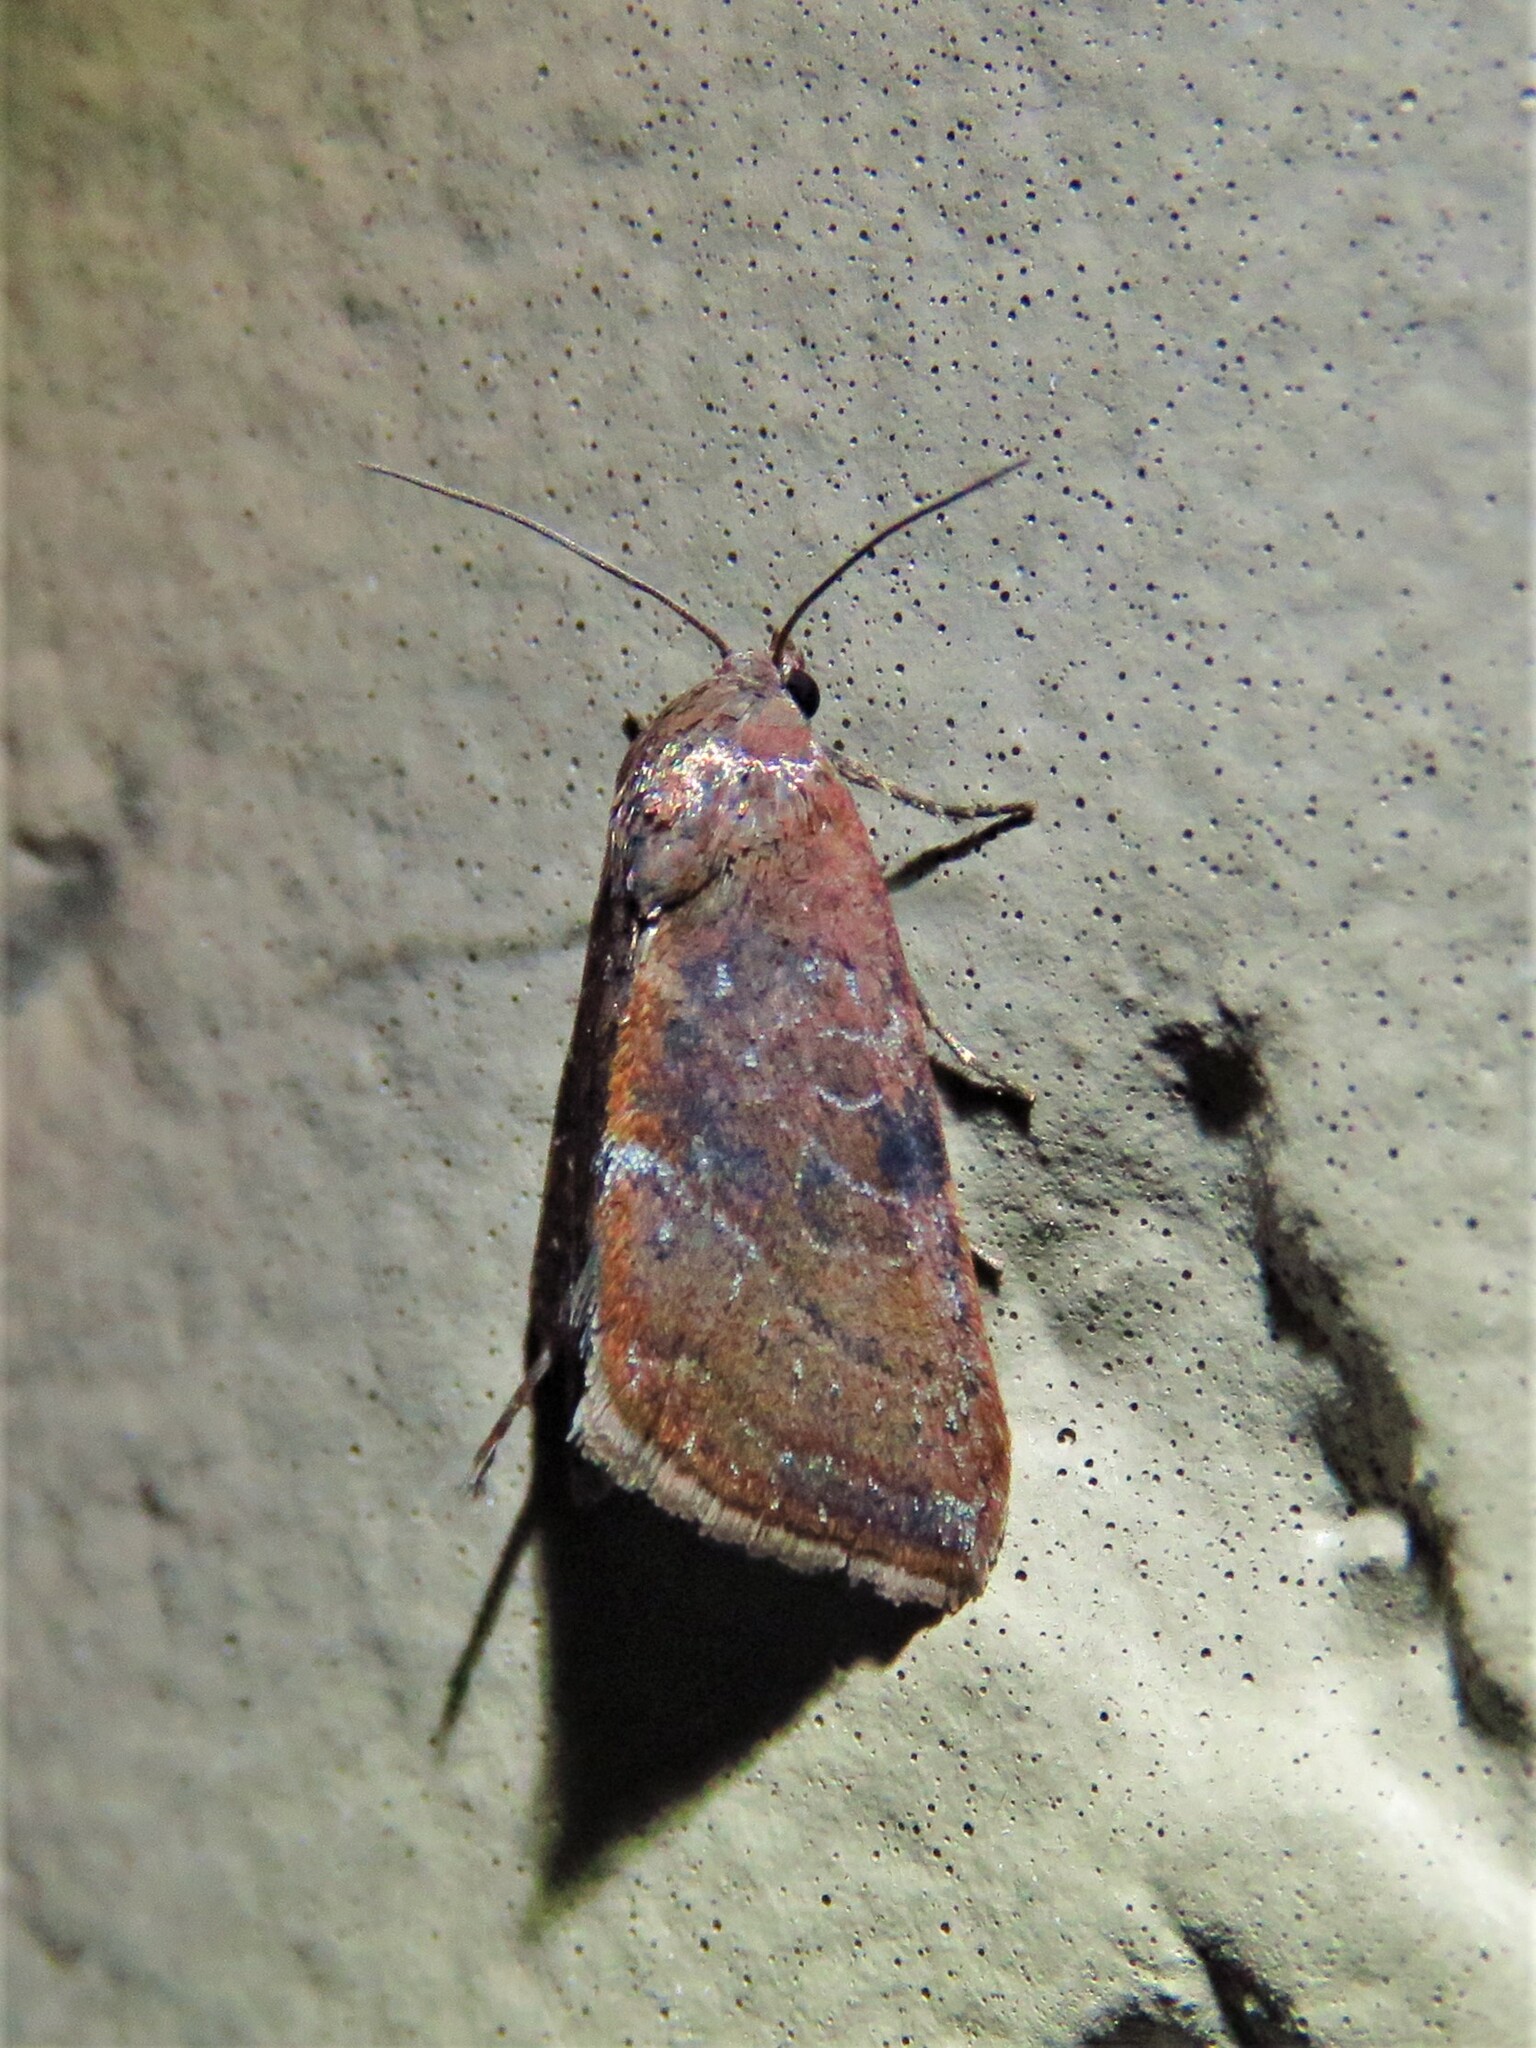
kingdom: Animalia
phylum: Arthropoda
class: Insecta
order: Lepidoptera
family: Noctuidae
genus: Galgula
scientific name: Galgula partita
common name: Wedgeling
